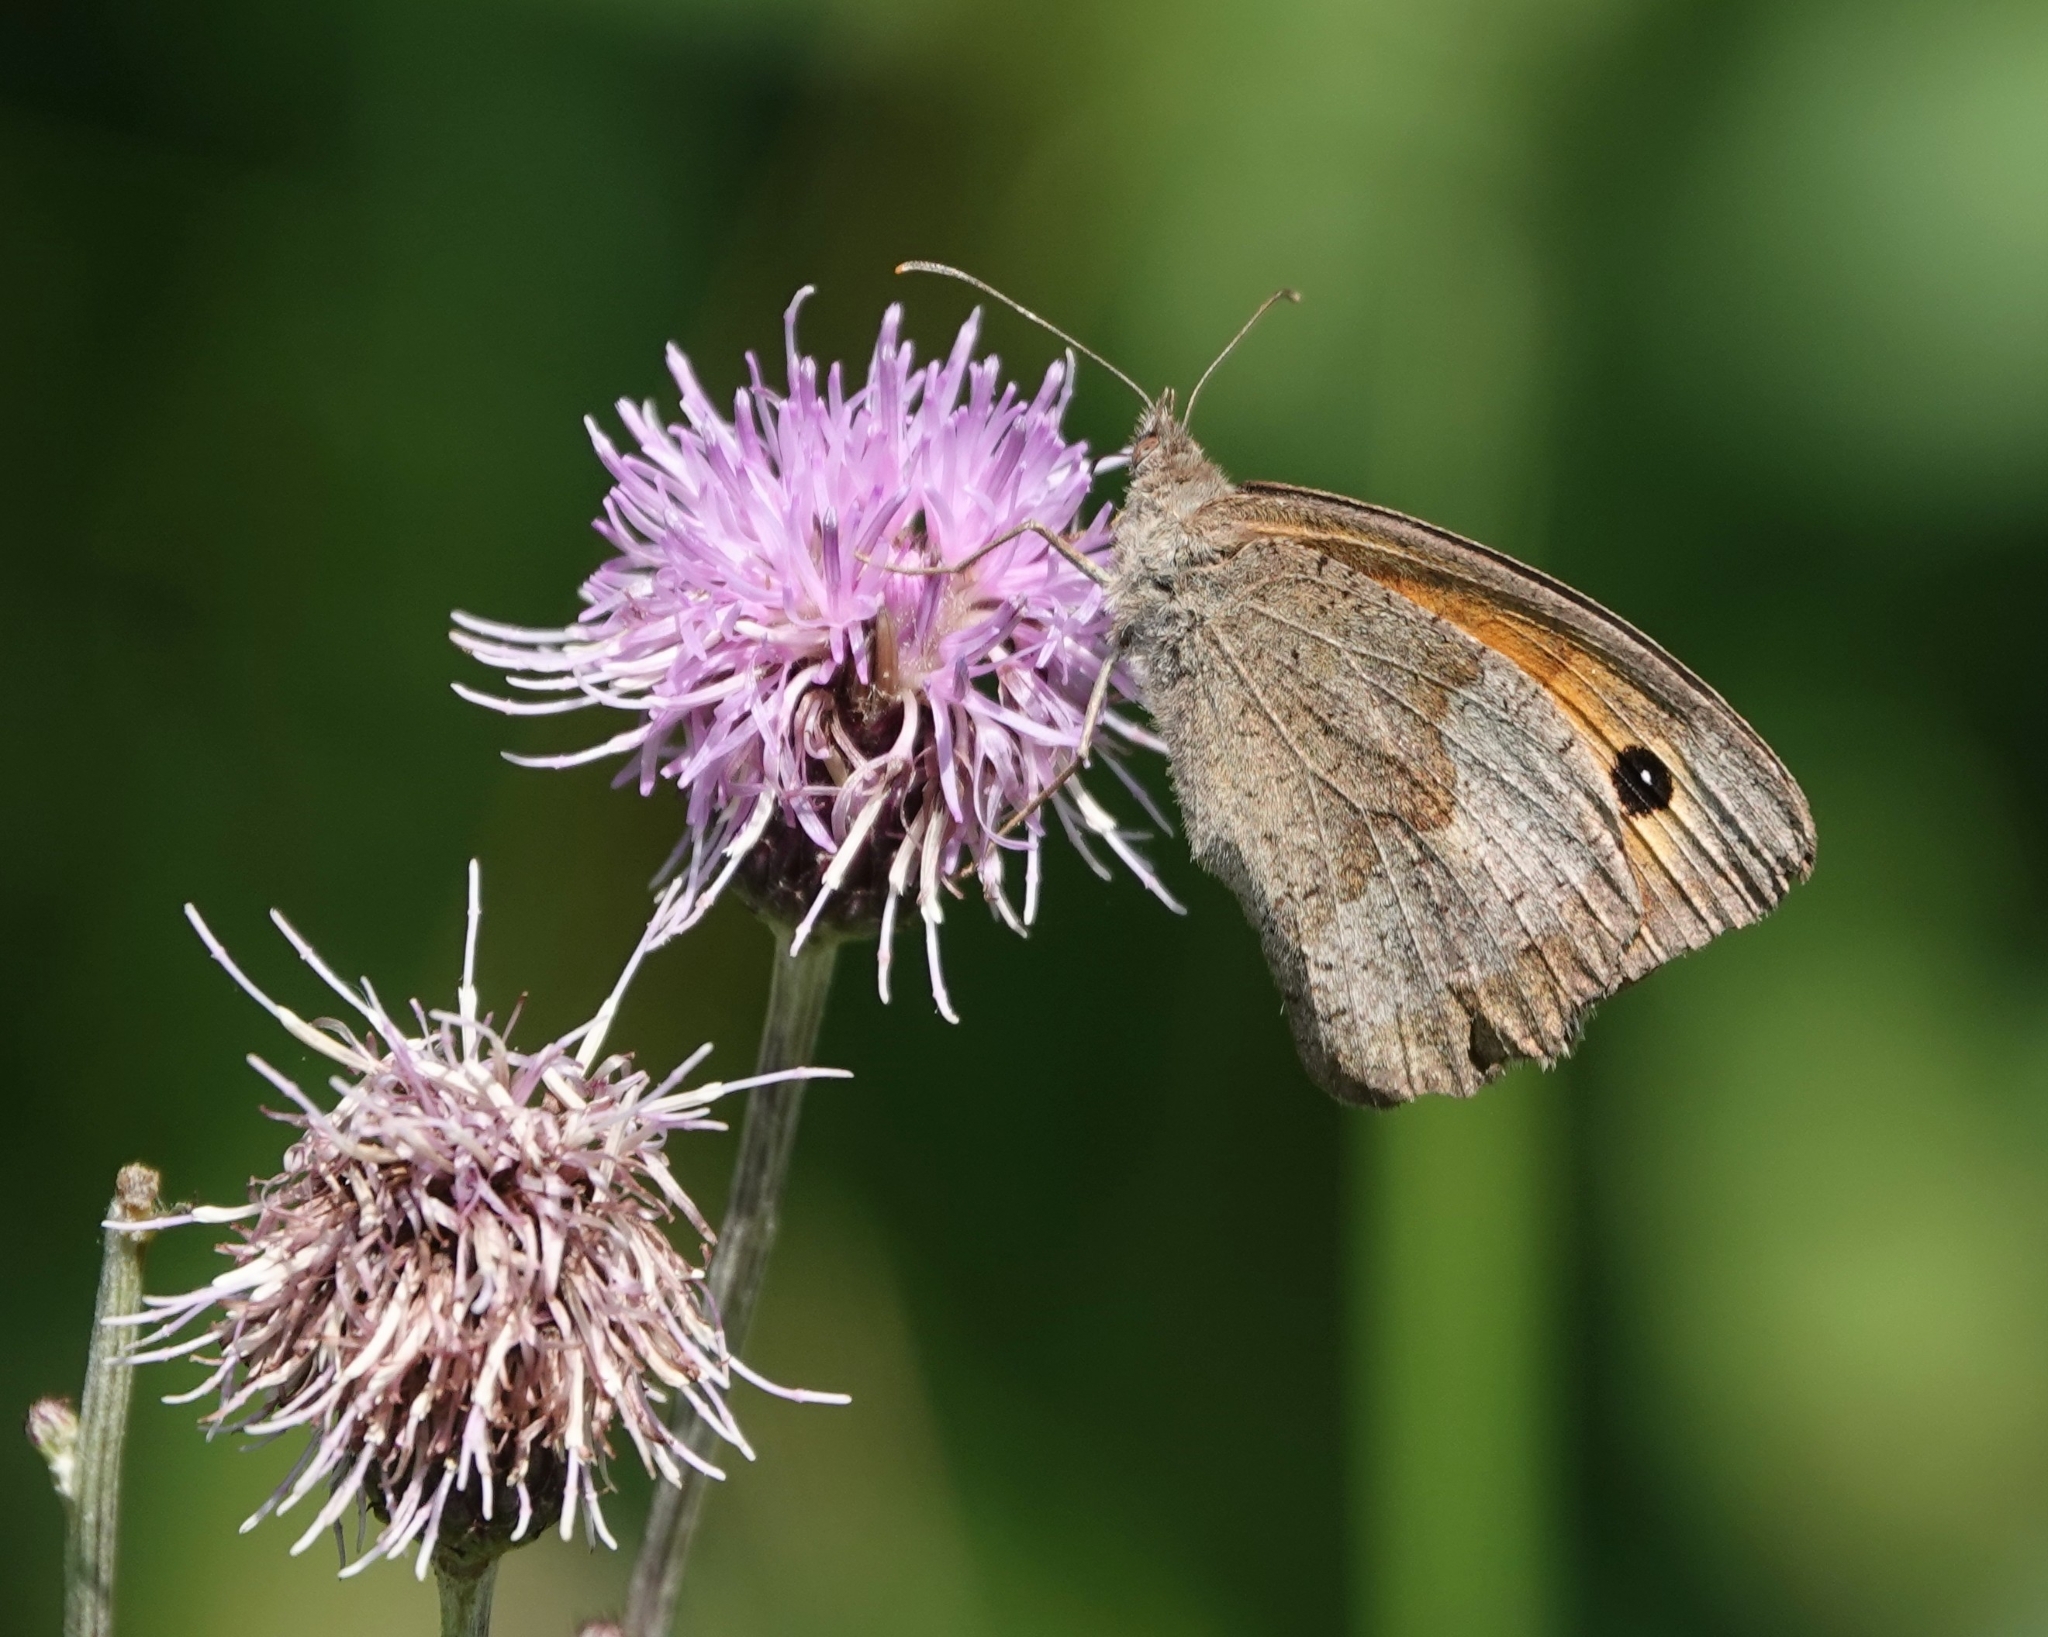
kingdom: Animalia
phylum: Arthropoda
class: Insecta
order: Lepidoptera
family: Nymphalidae
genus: Maniola
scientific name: Maniola jurtina
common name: Meadow brown
